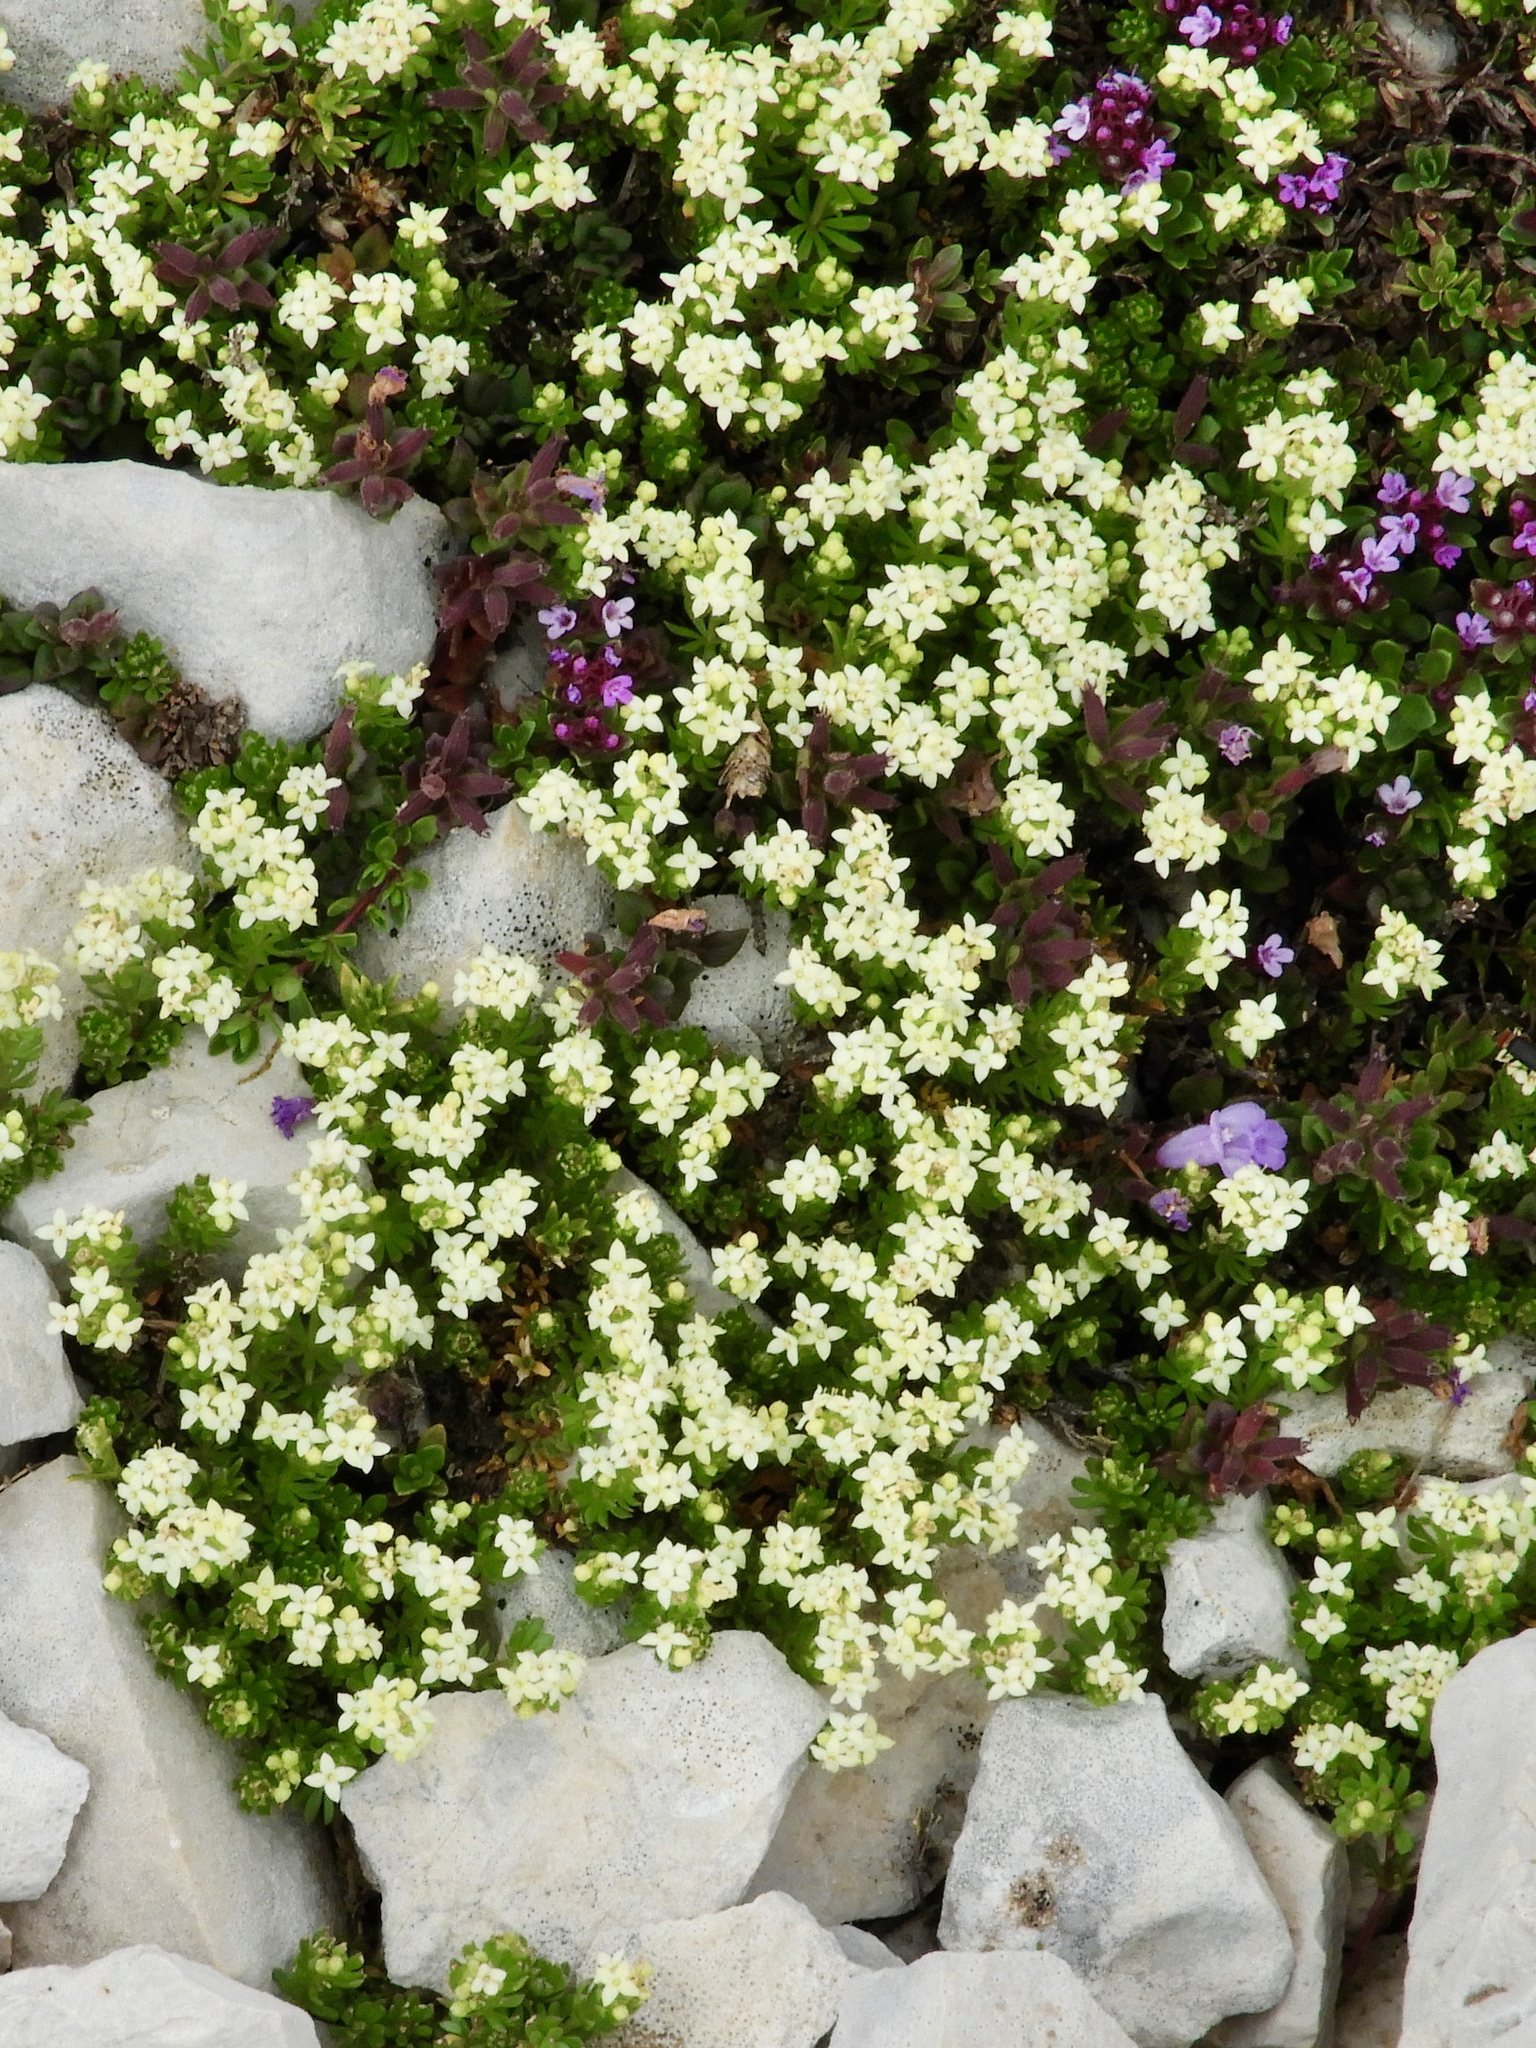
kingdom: Plantae
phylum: Tracheophyta
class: Magnoliopsida
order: Gentianales
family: Rubiaceae
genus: Galium
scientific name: Galium magellense
